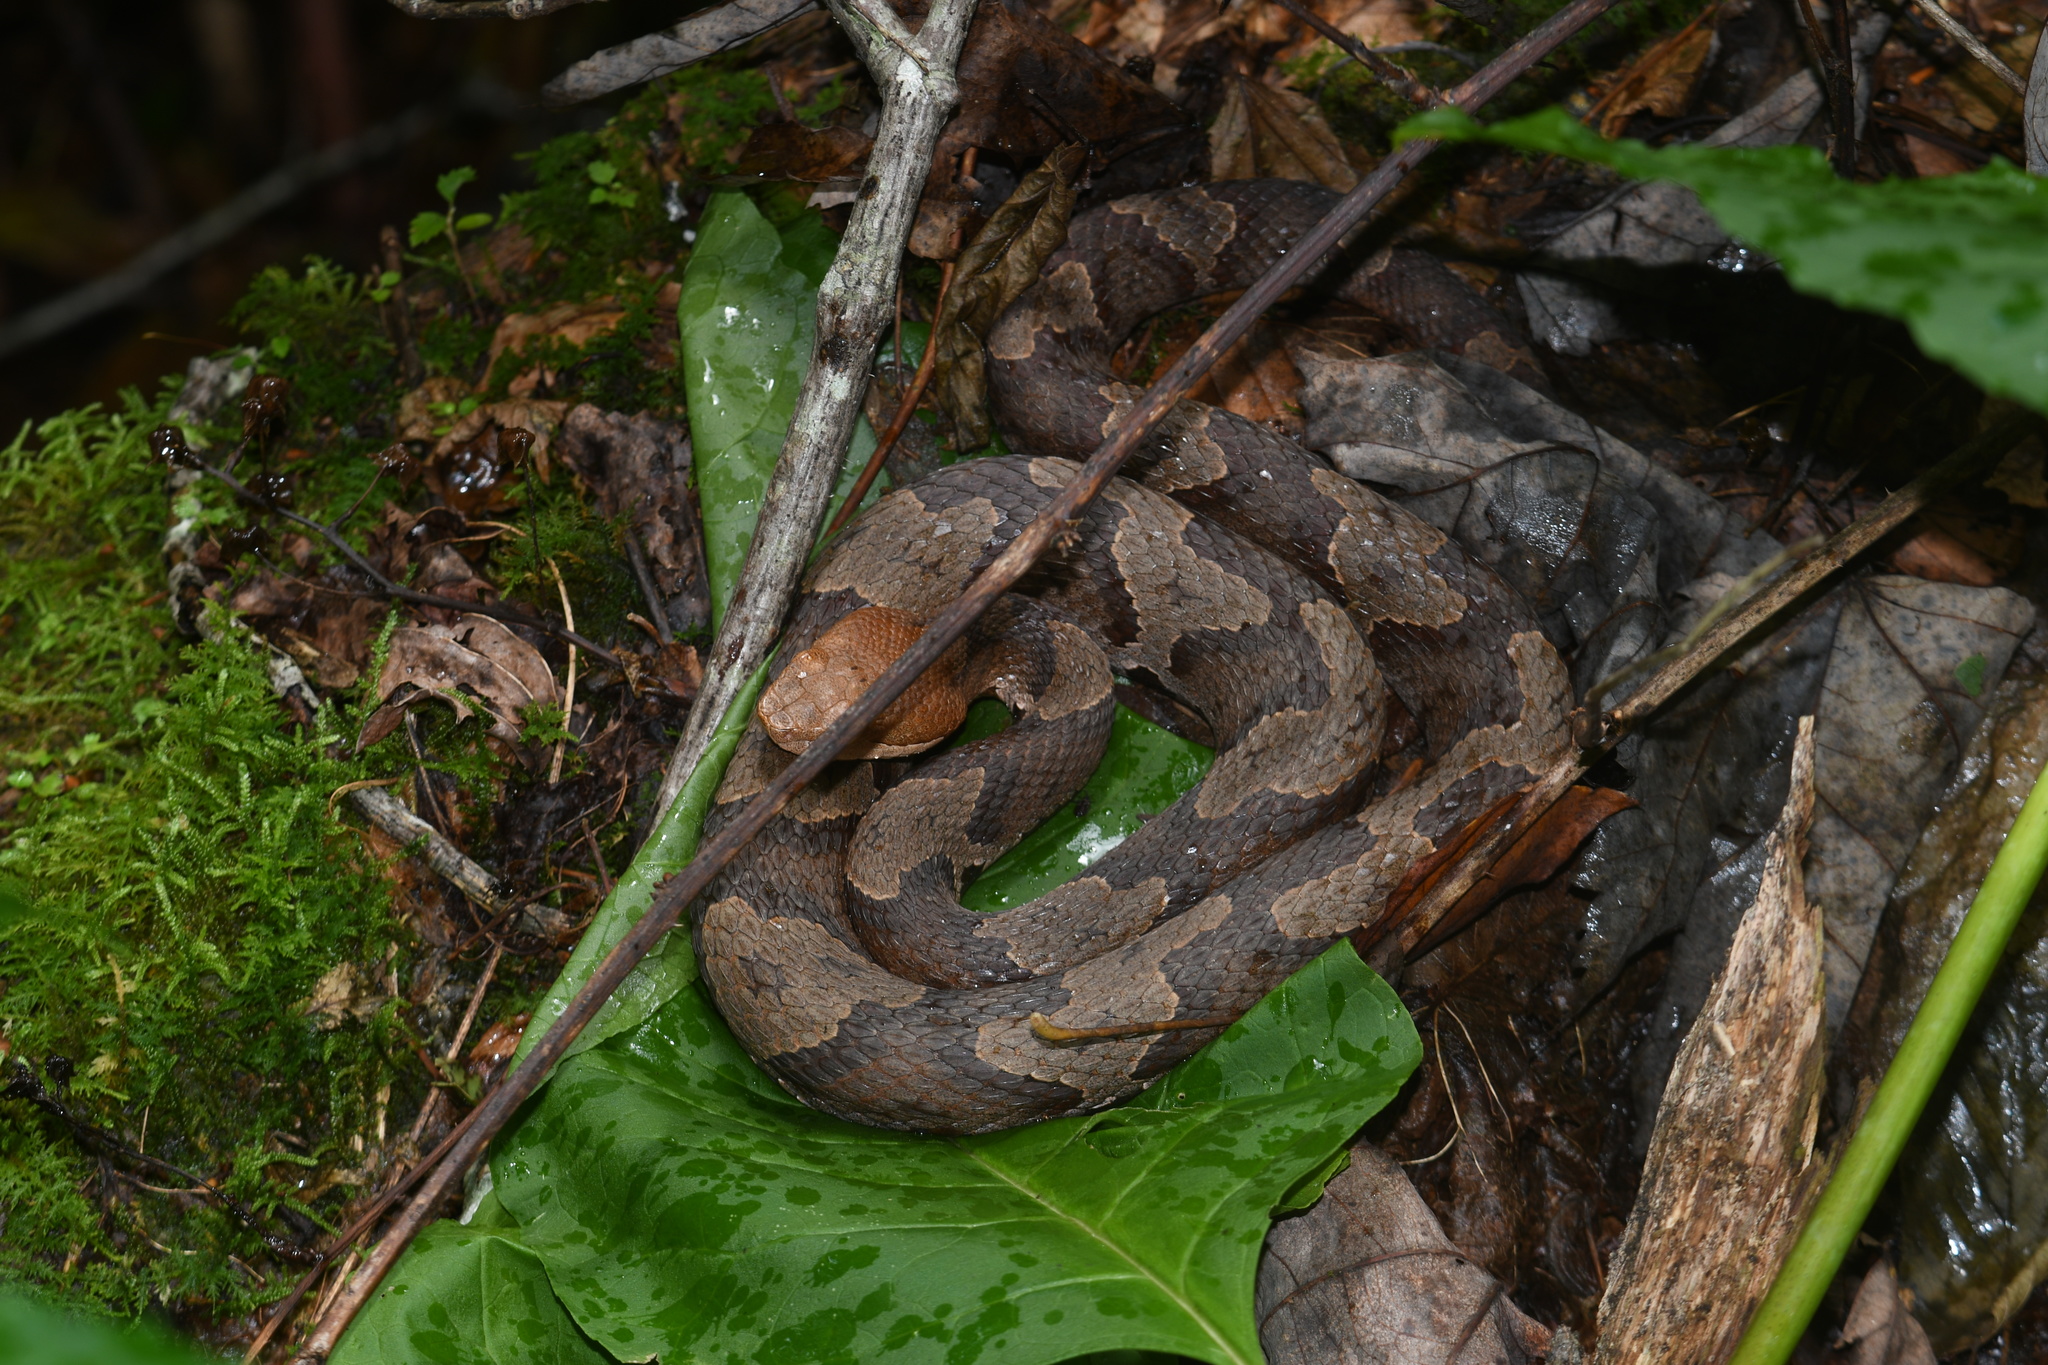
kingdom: Animalia
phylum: Chordata
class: Squamata
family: Viperidae
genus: Agkistrodon
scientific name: Agkistrodon contortrix
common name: Northern copperhead
